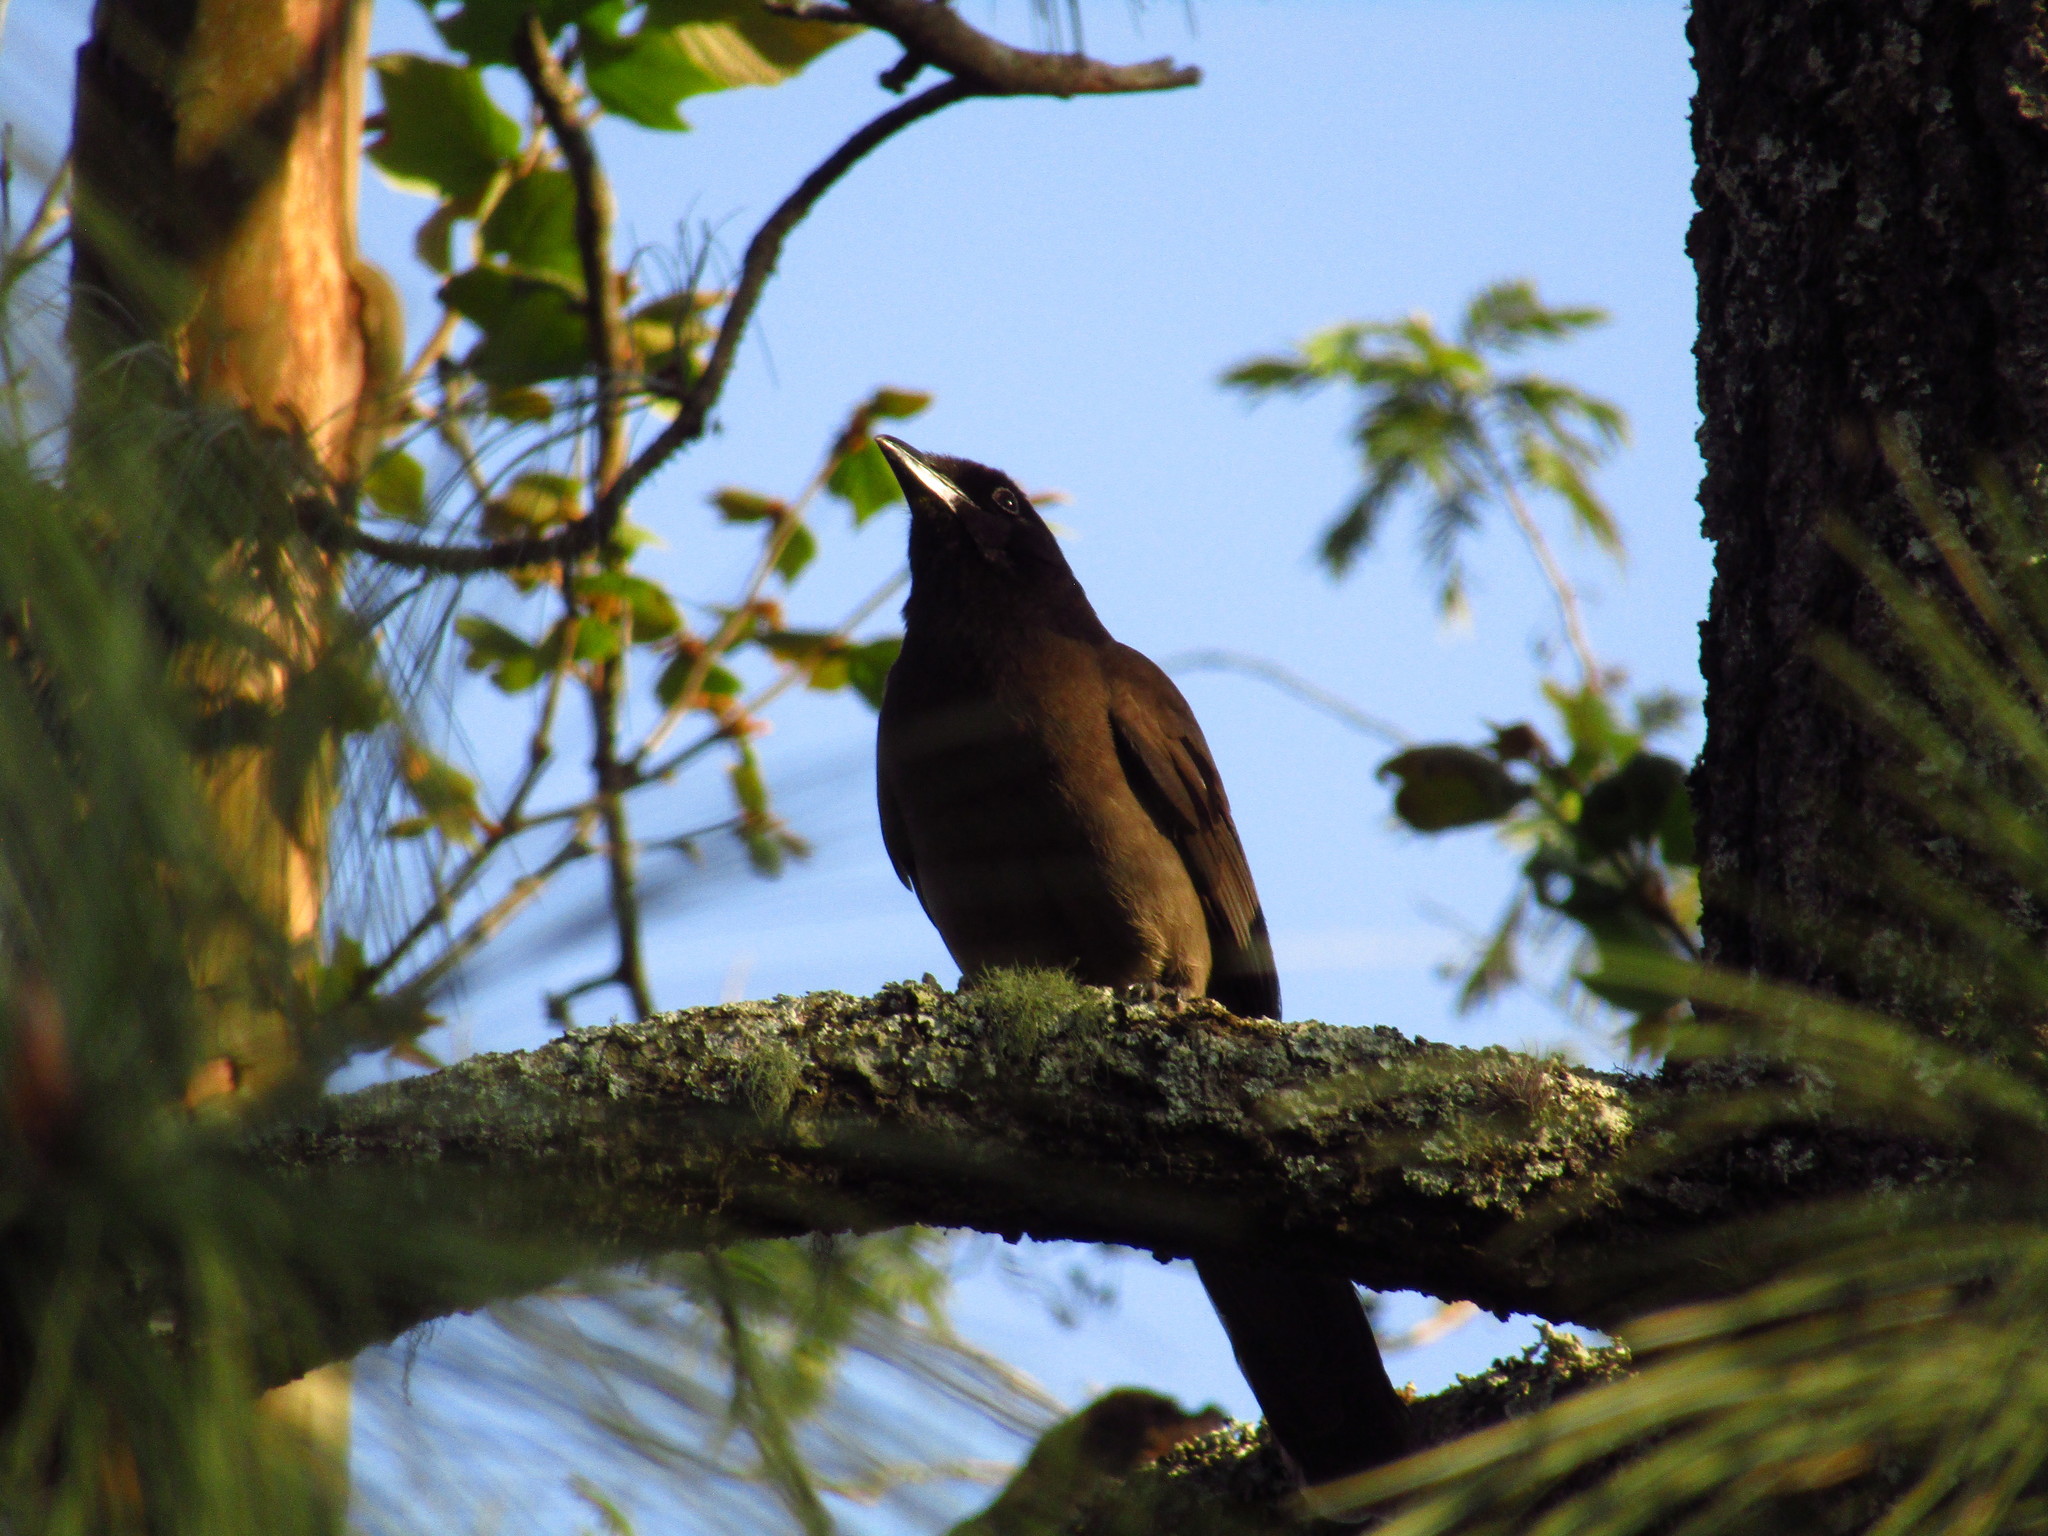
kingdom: Animalia
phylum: Chordata
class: Aves
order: Passeriformes
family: Corvidae
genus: Psilorhinus
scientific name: Psilorhinus morio
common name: Brown jay
